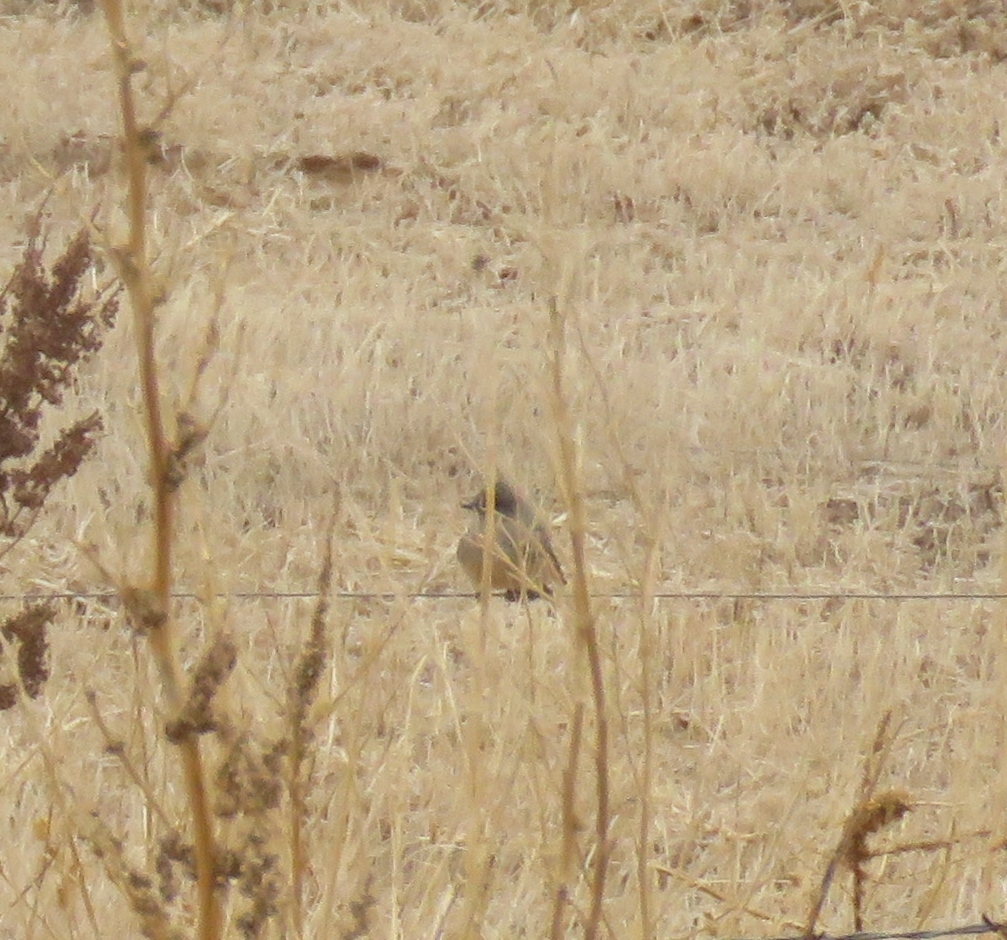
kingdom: Animalia
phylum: Chordata
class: Aves
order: Passeriformes
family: Tyrannidae
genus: Sayornis
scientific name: Sayornis saya
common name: Say's phoebe
